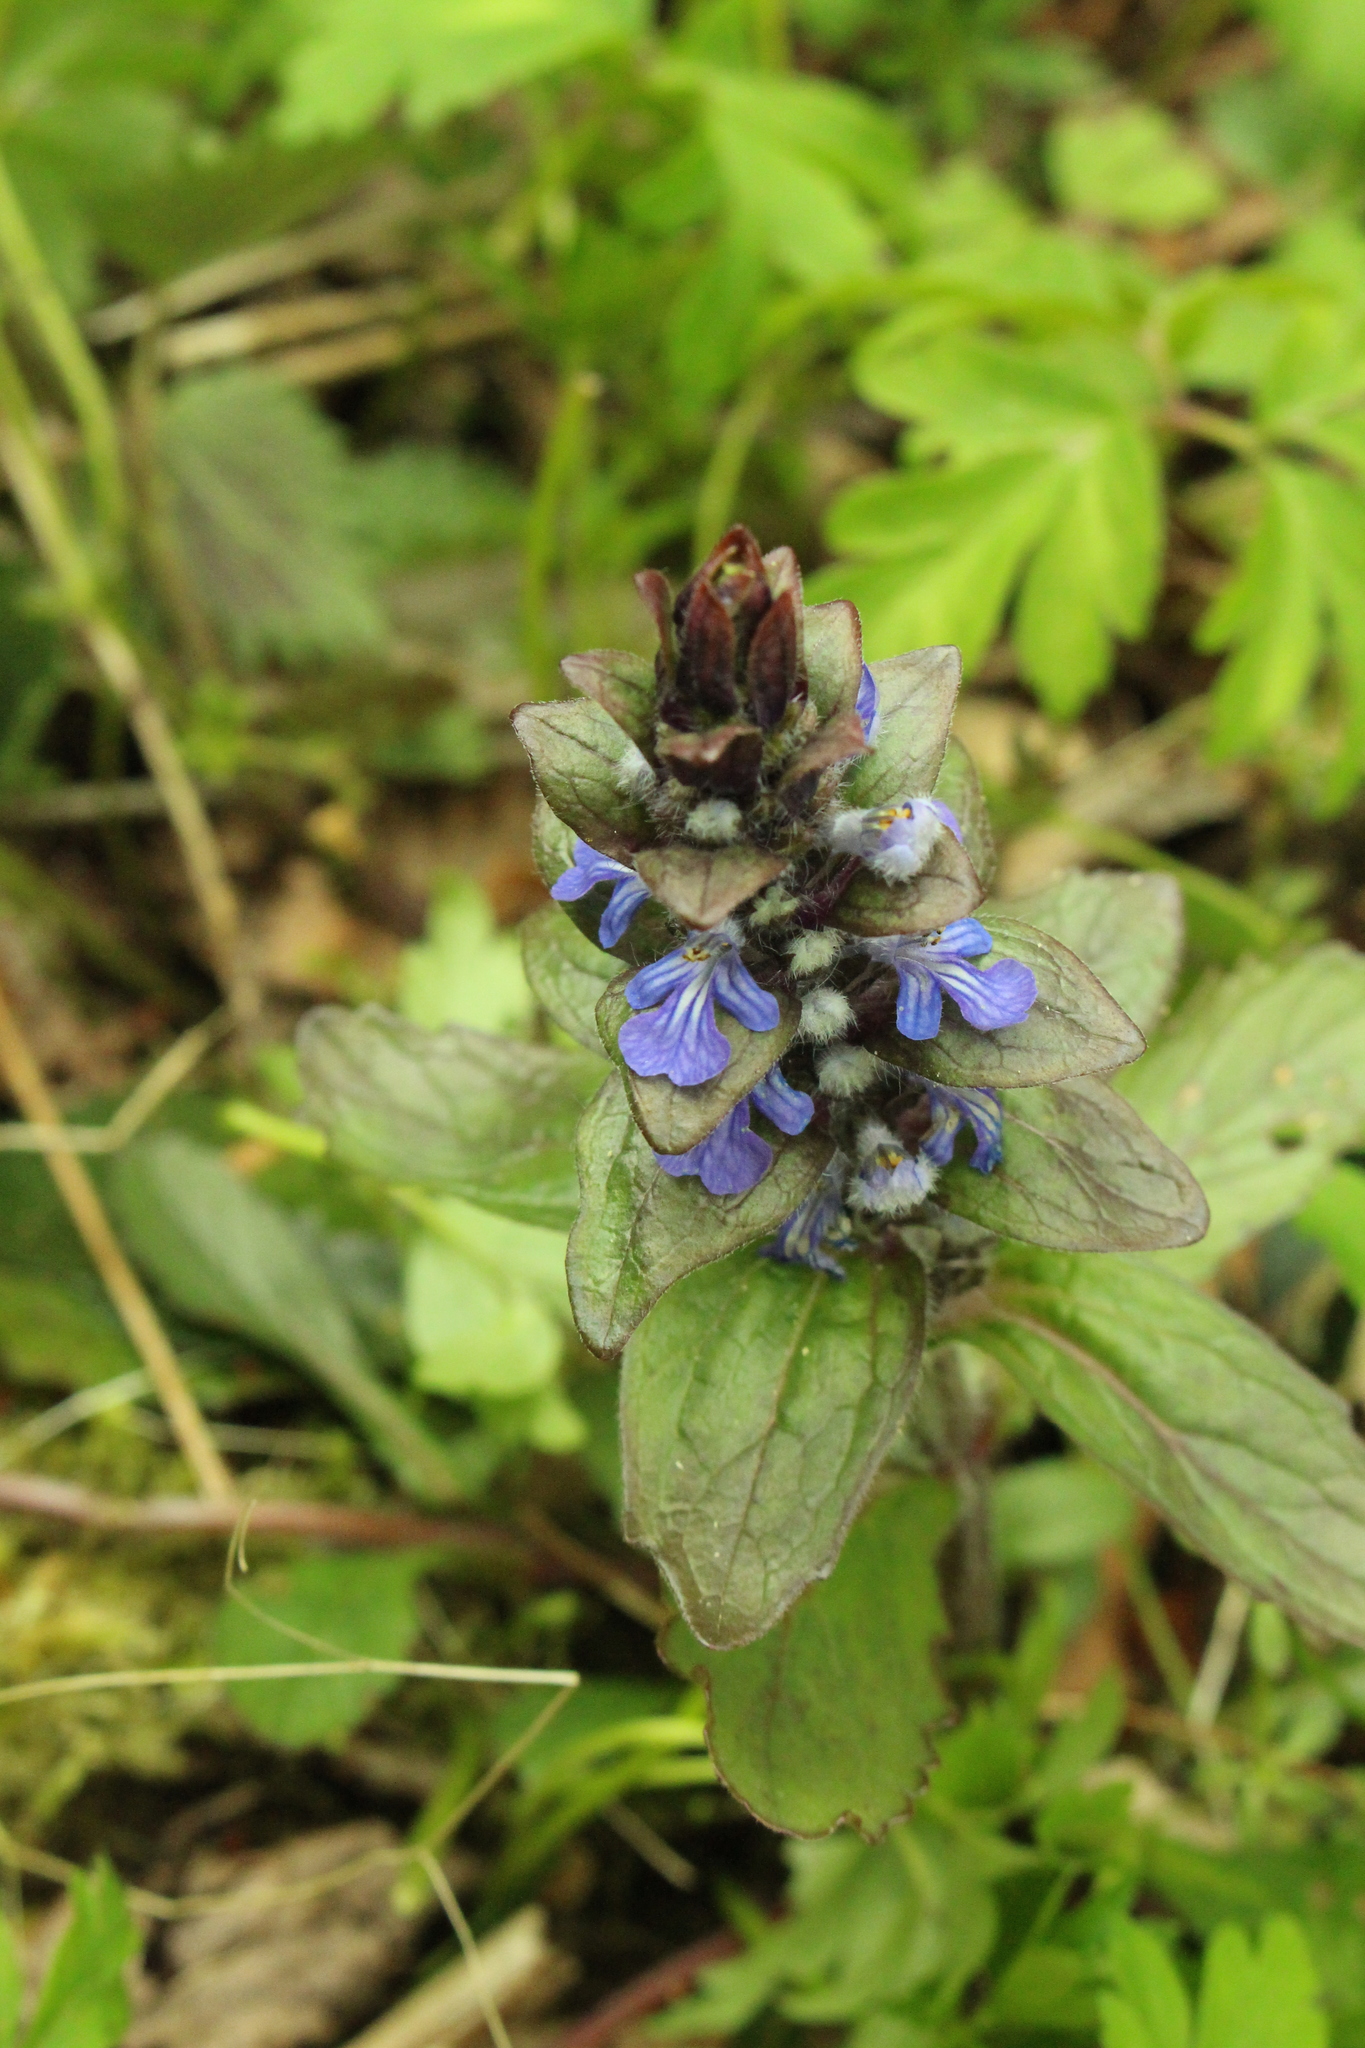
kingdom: Plantae
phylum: Tracheophyta
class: Magnoliopsida
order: Lamiales
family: Lamiaceae
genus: Ajuga
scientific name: Ajuga reptans
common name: Bugle
